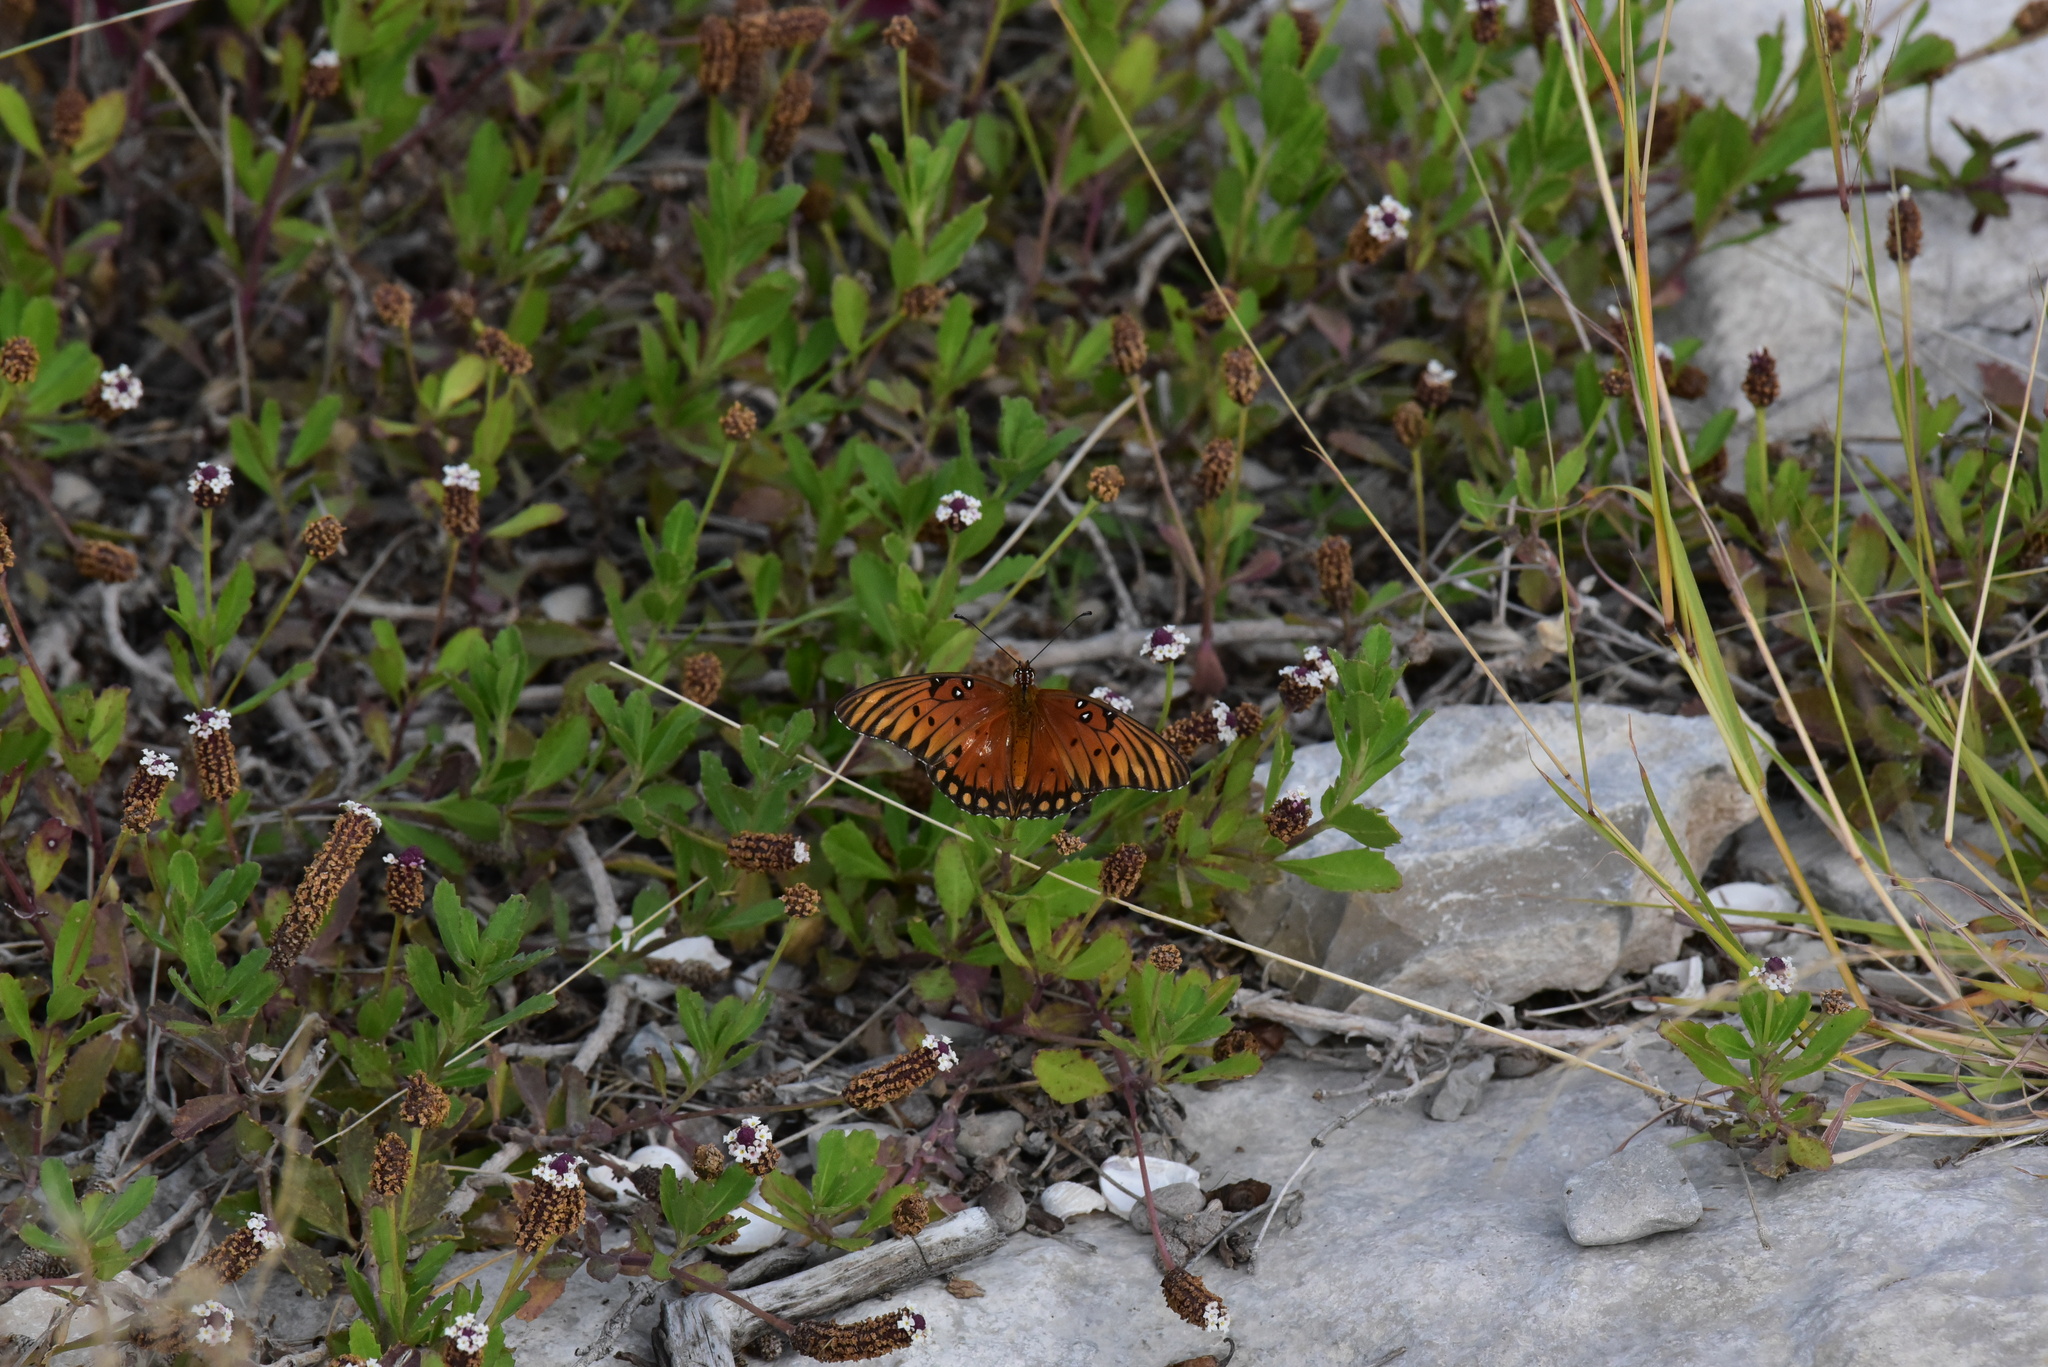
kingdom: Animalia
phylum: Arthropoda
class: Insecta
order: Lepidoptera
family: Nymphalidae
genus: Dione
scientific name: Dione vanillae
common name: Gulf fritillary
